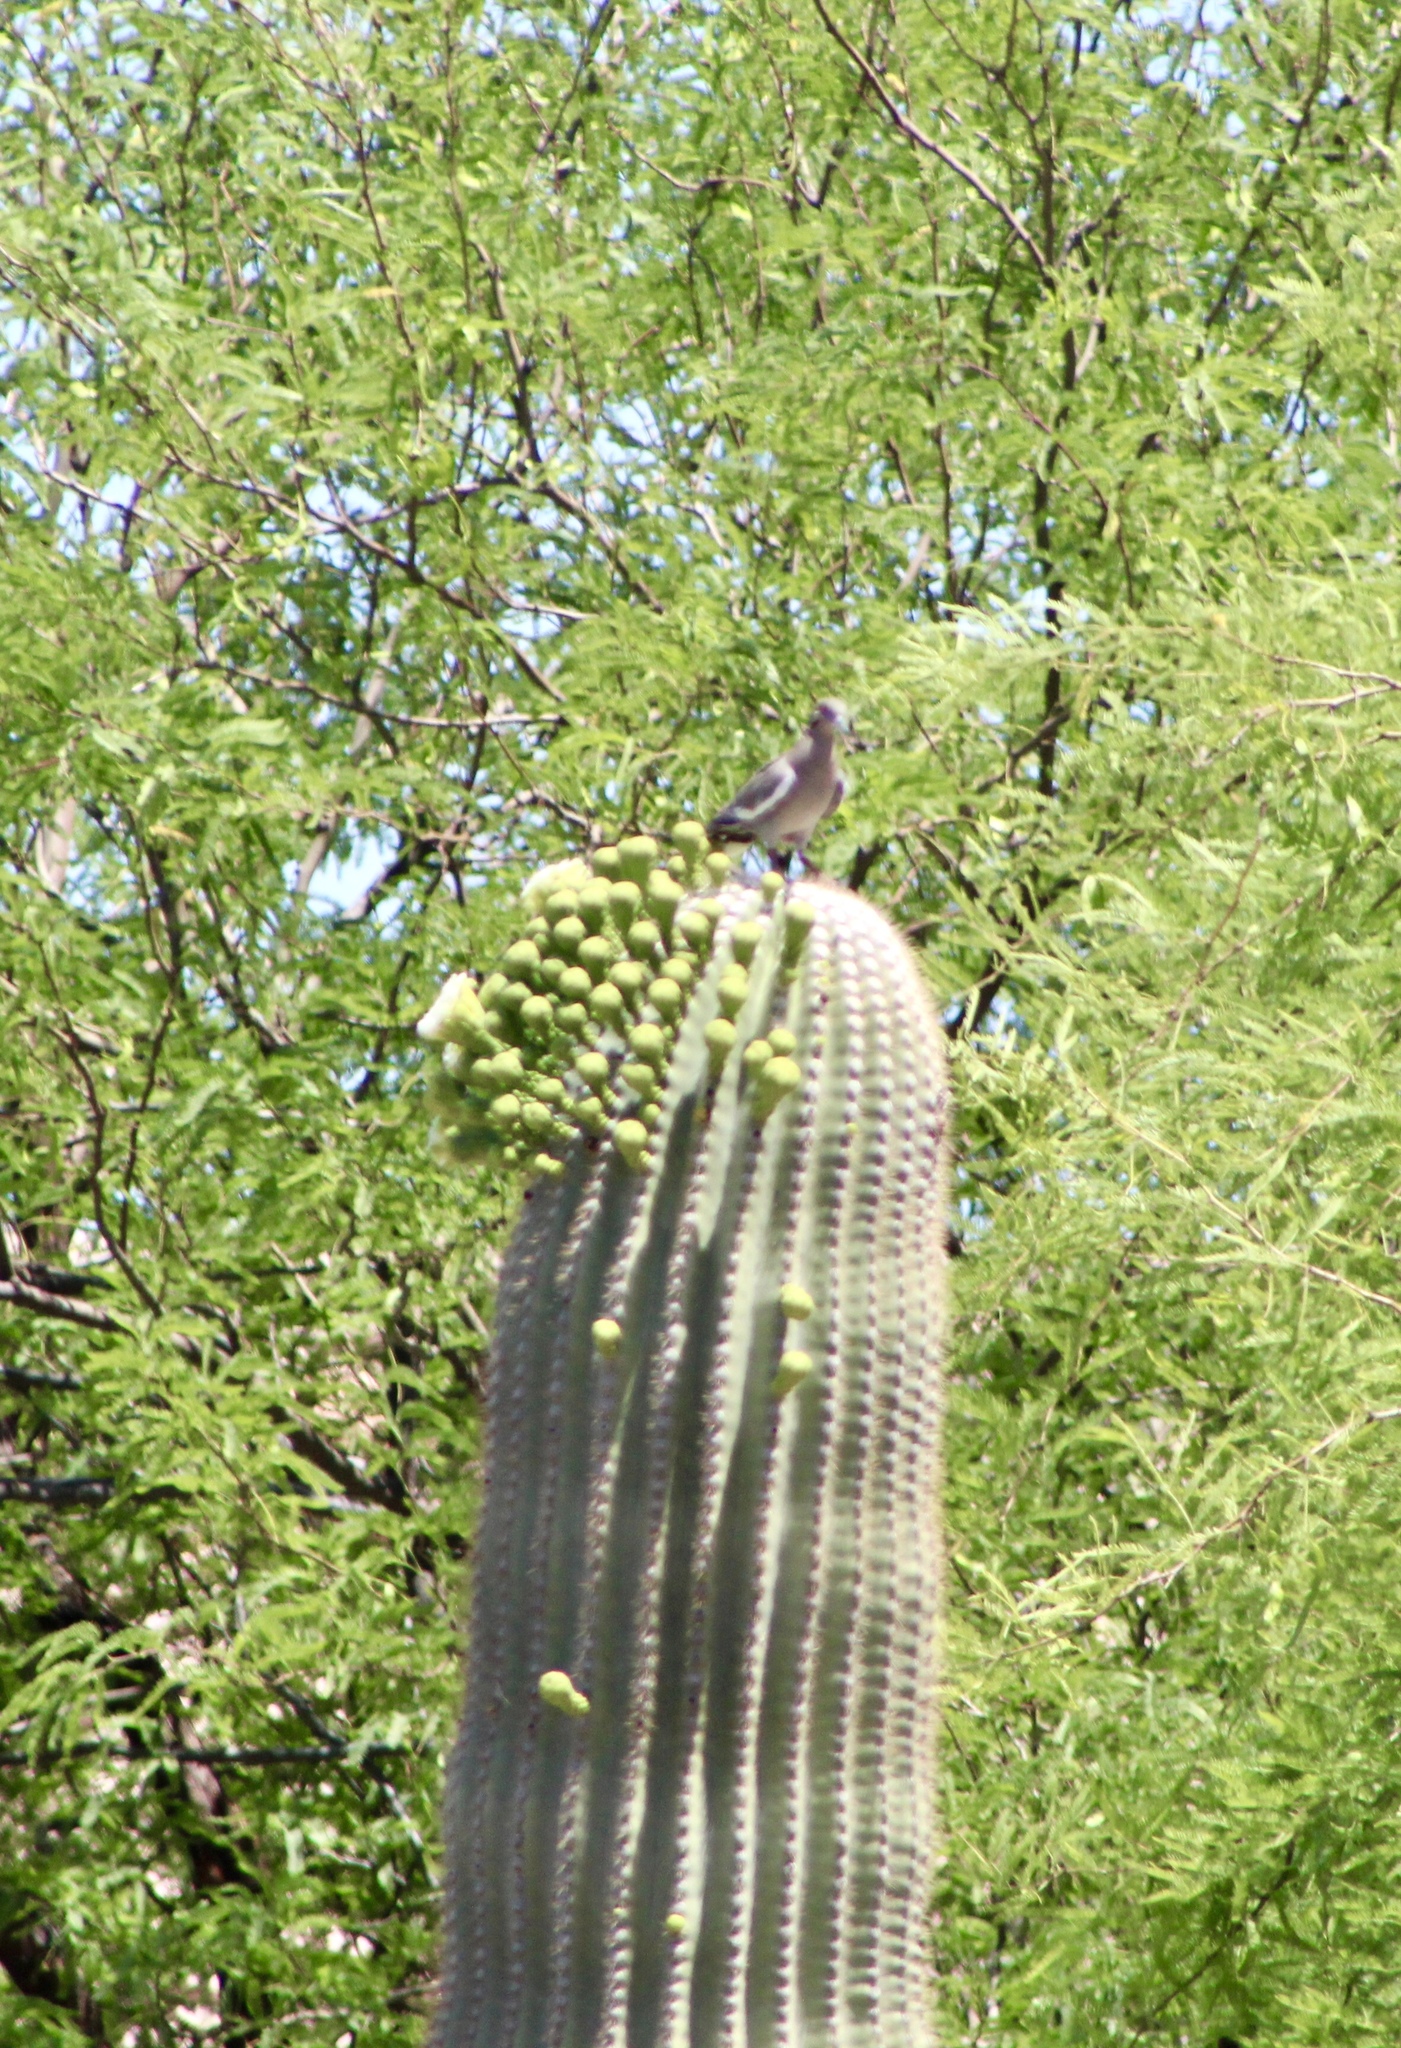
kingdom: Animalia
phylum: Chordata
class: Aves
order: Columbiformes
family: Columbidae
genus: Zenaida
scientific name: Zenaida asiatica
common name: White-winged dove
